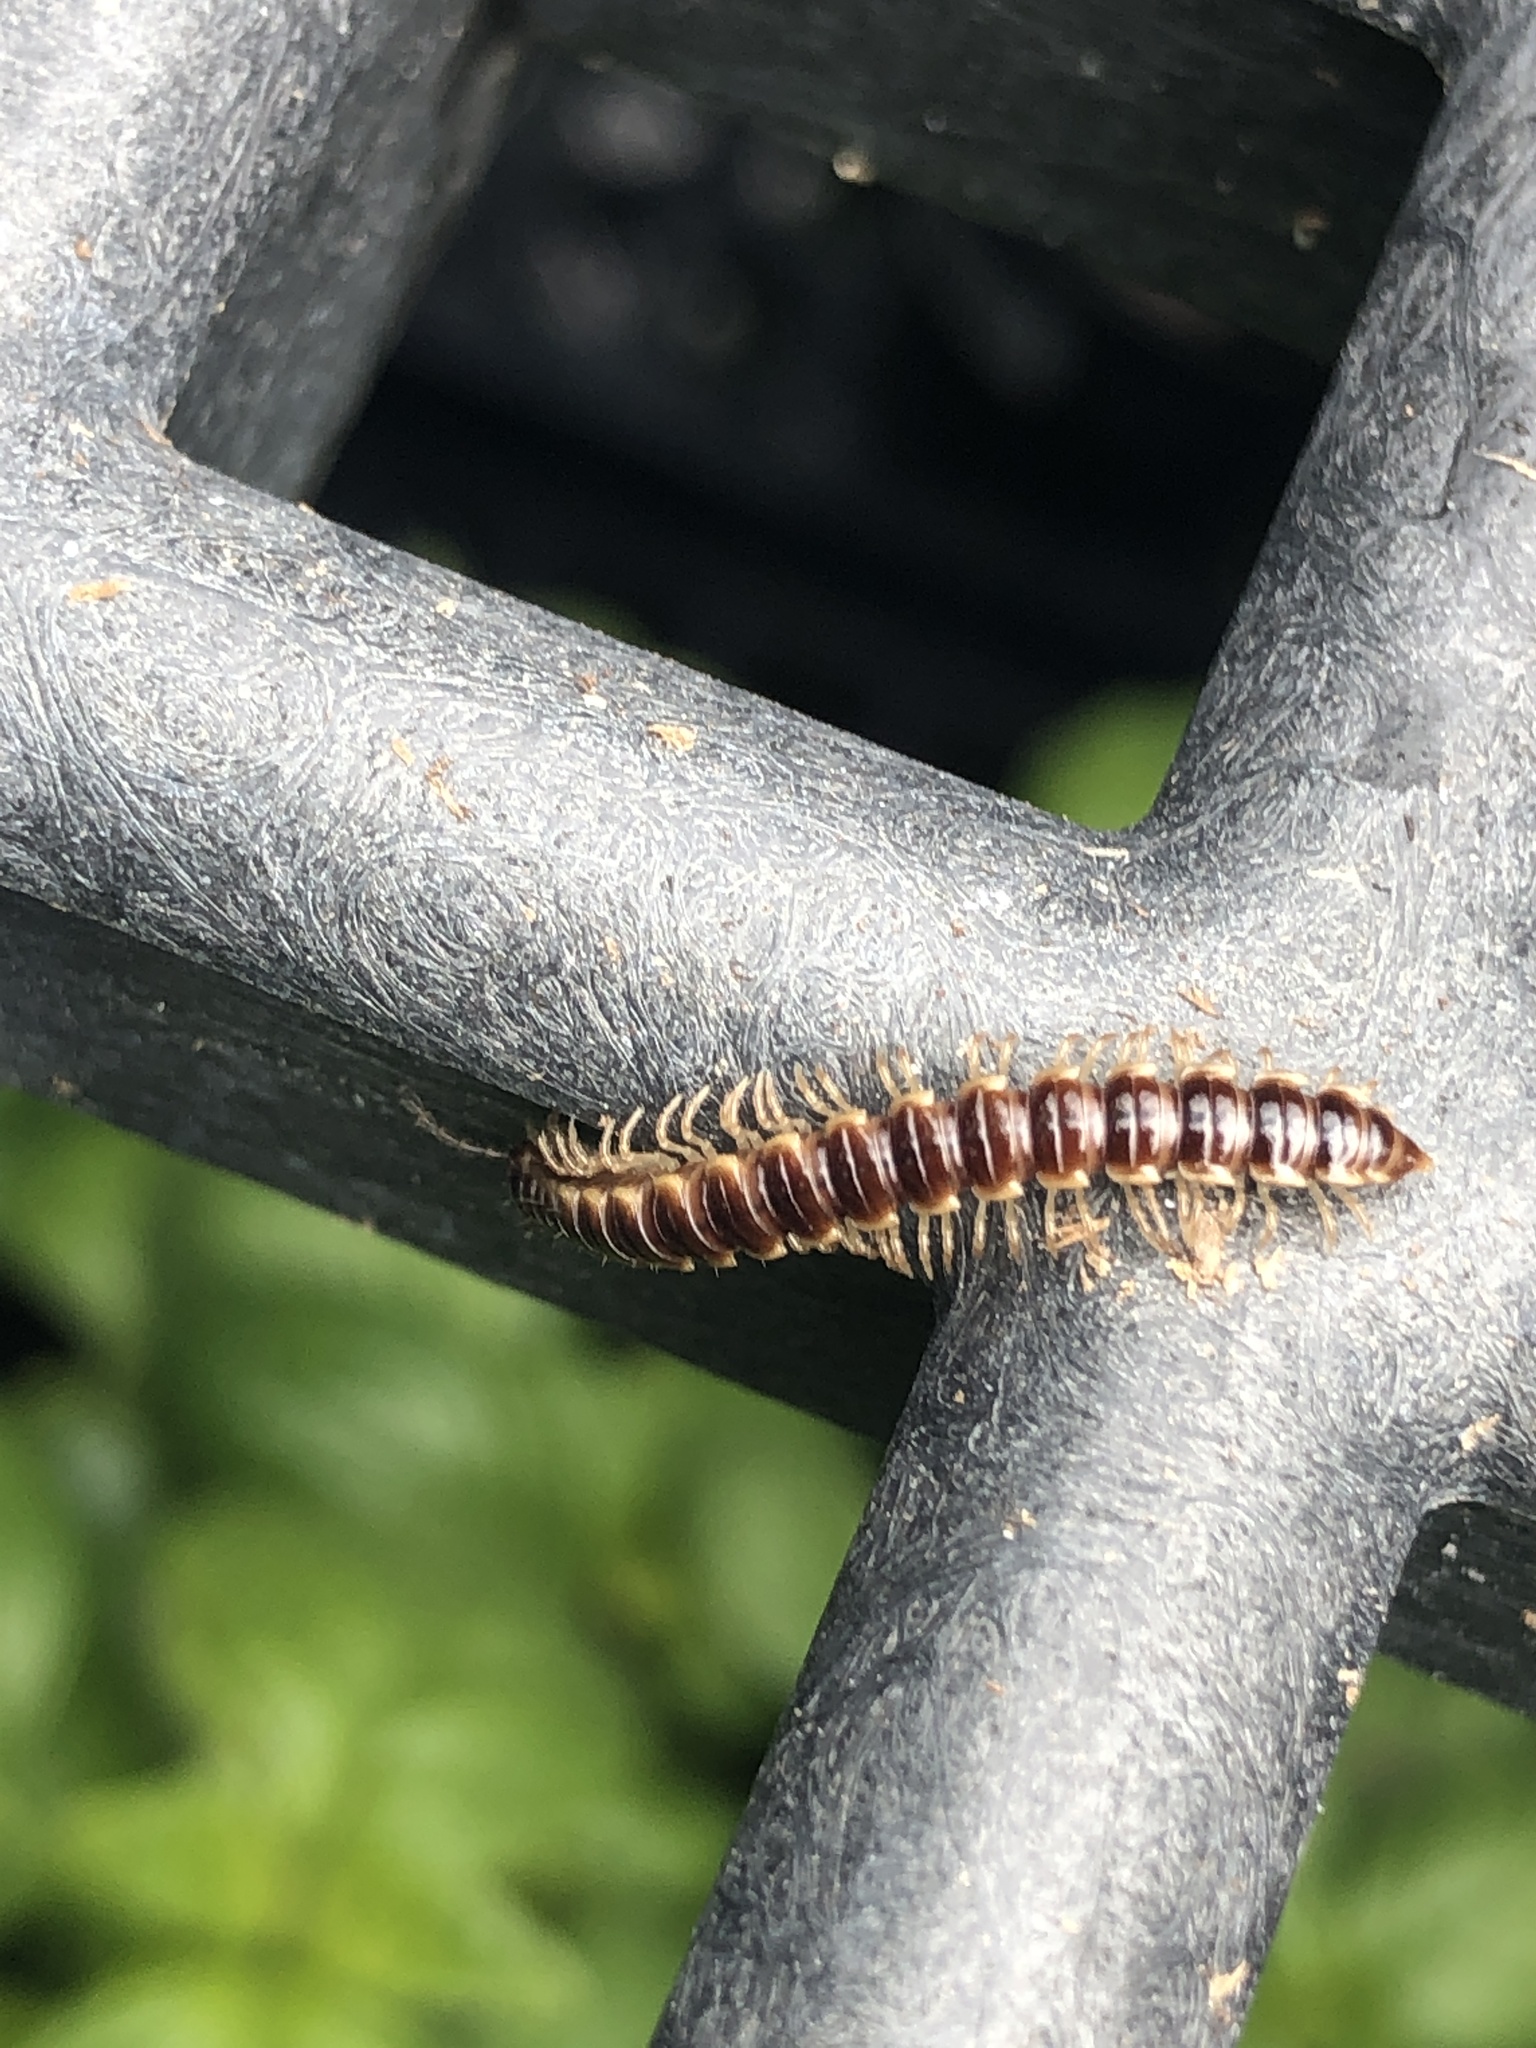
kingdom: Animalia
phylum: Arthropoda
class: Diplopoda
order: Polydesmida
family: Paradoxosomatidae
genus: Oxidus
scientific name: Oxidus gracilis
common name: Greenhouse millipede
